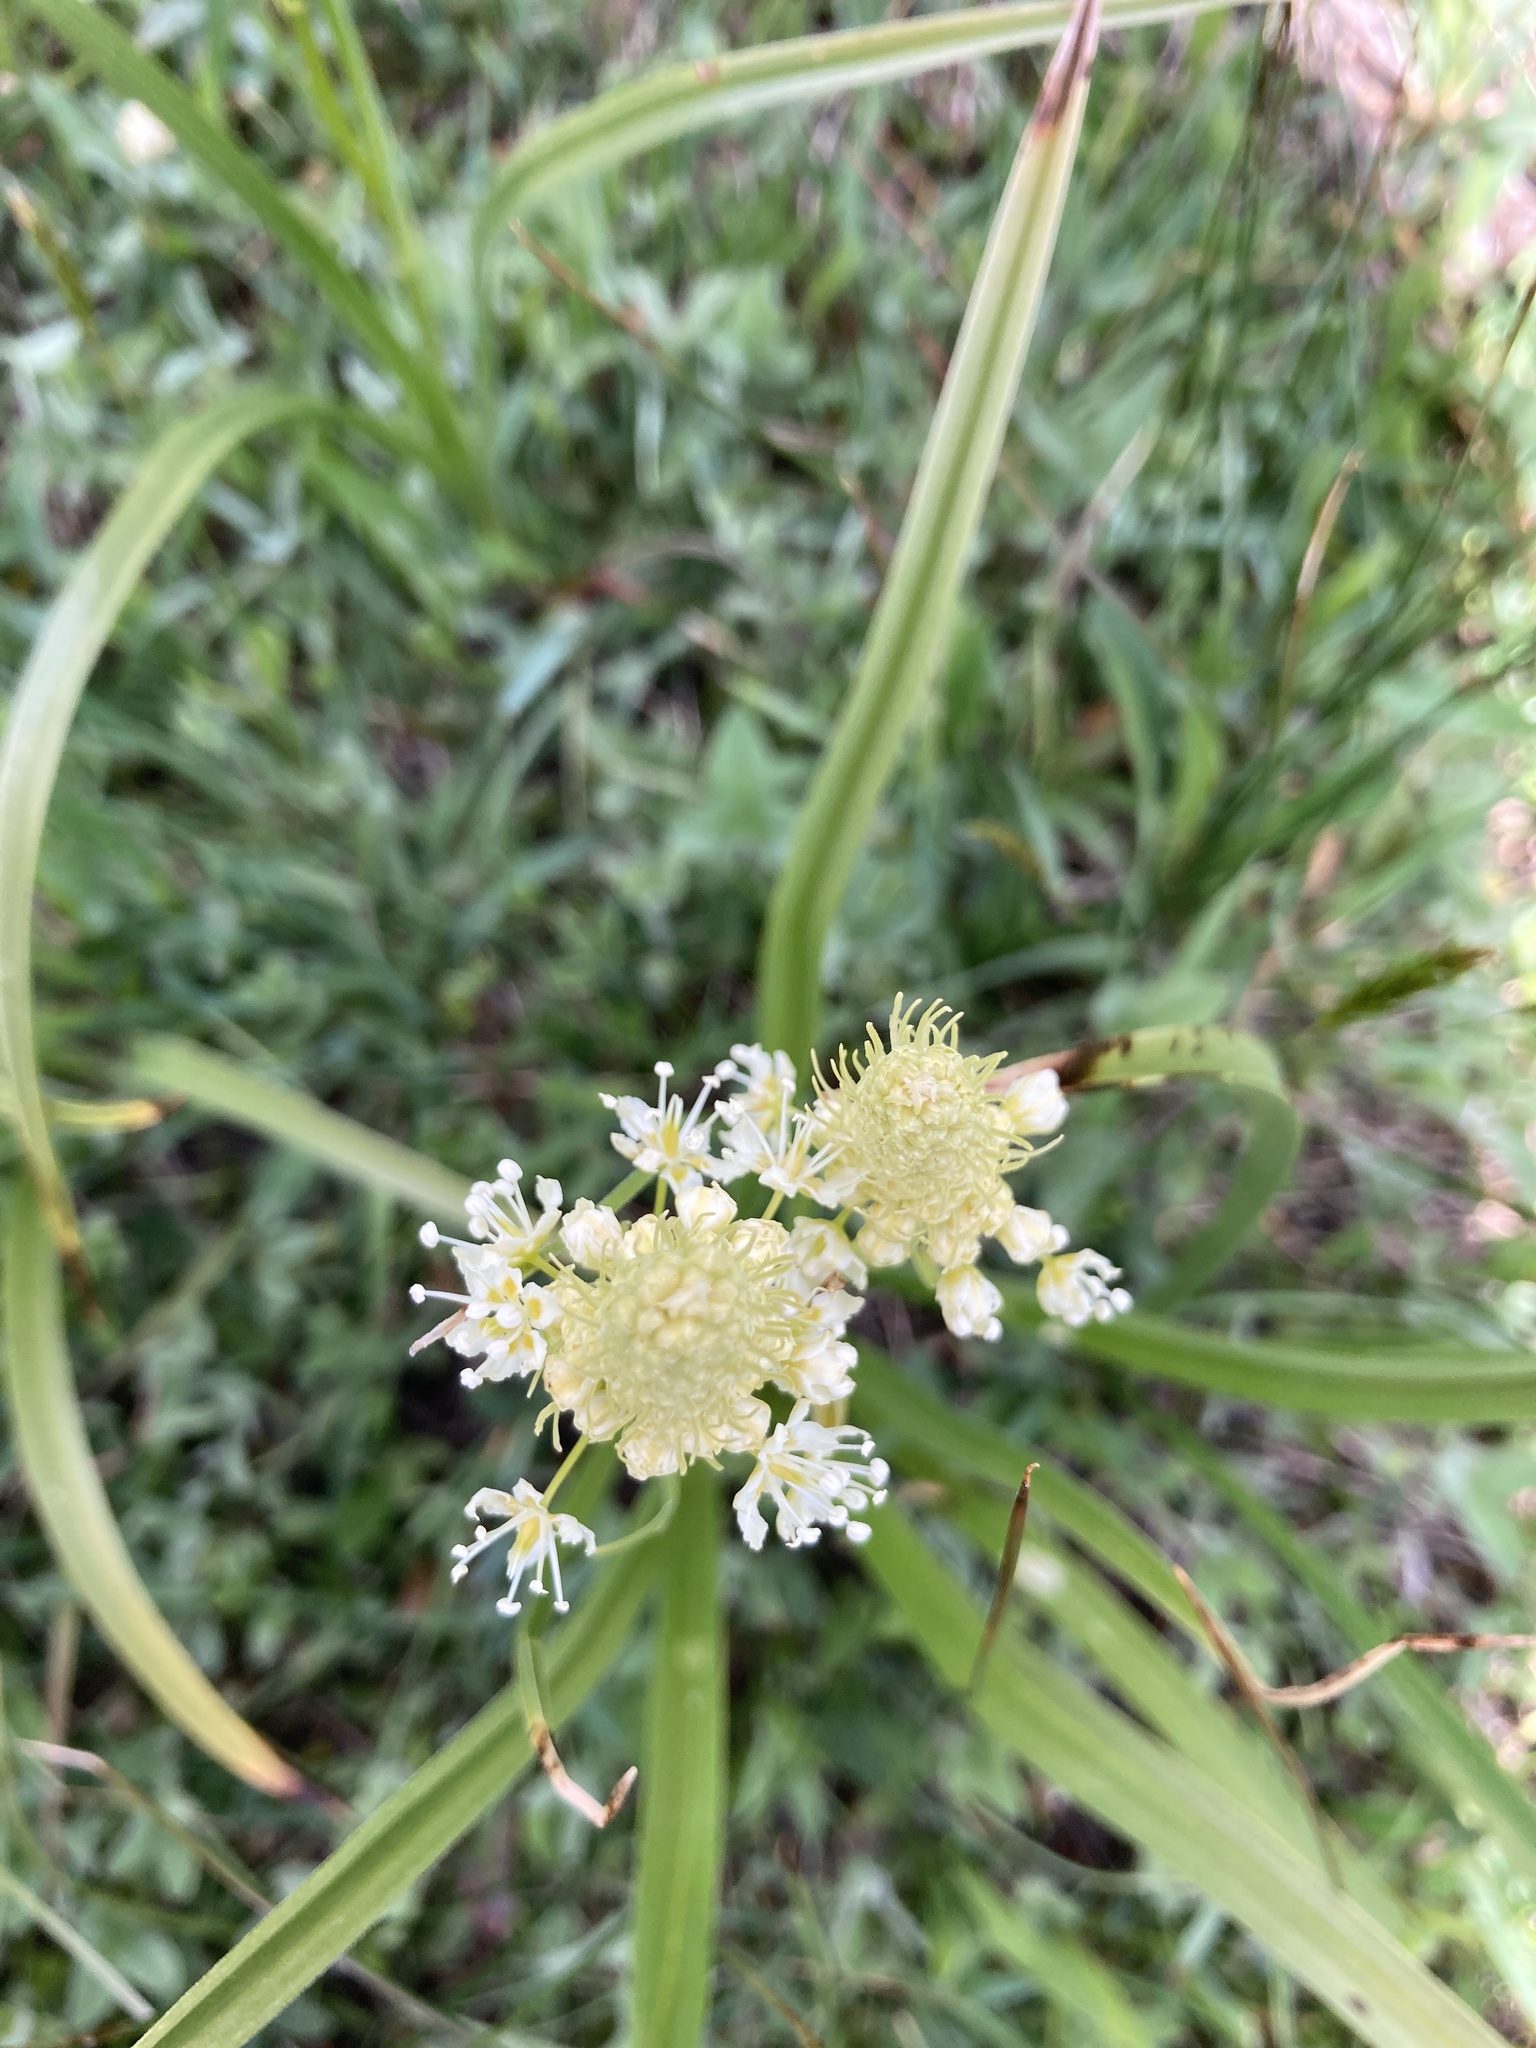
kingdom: Plantae
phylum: Tracheophyta
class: Liliopsida
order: Liliales
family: Melanthiaceae
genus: Toxicoscordion
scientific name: Toxicoscordion venenosum
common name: Meadow death camas
